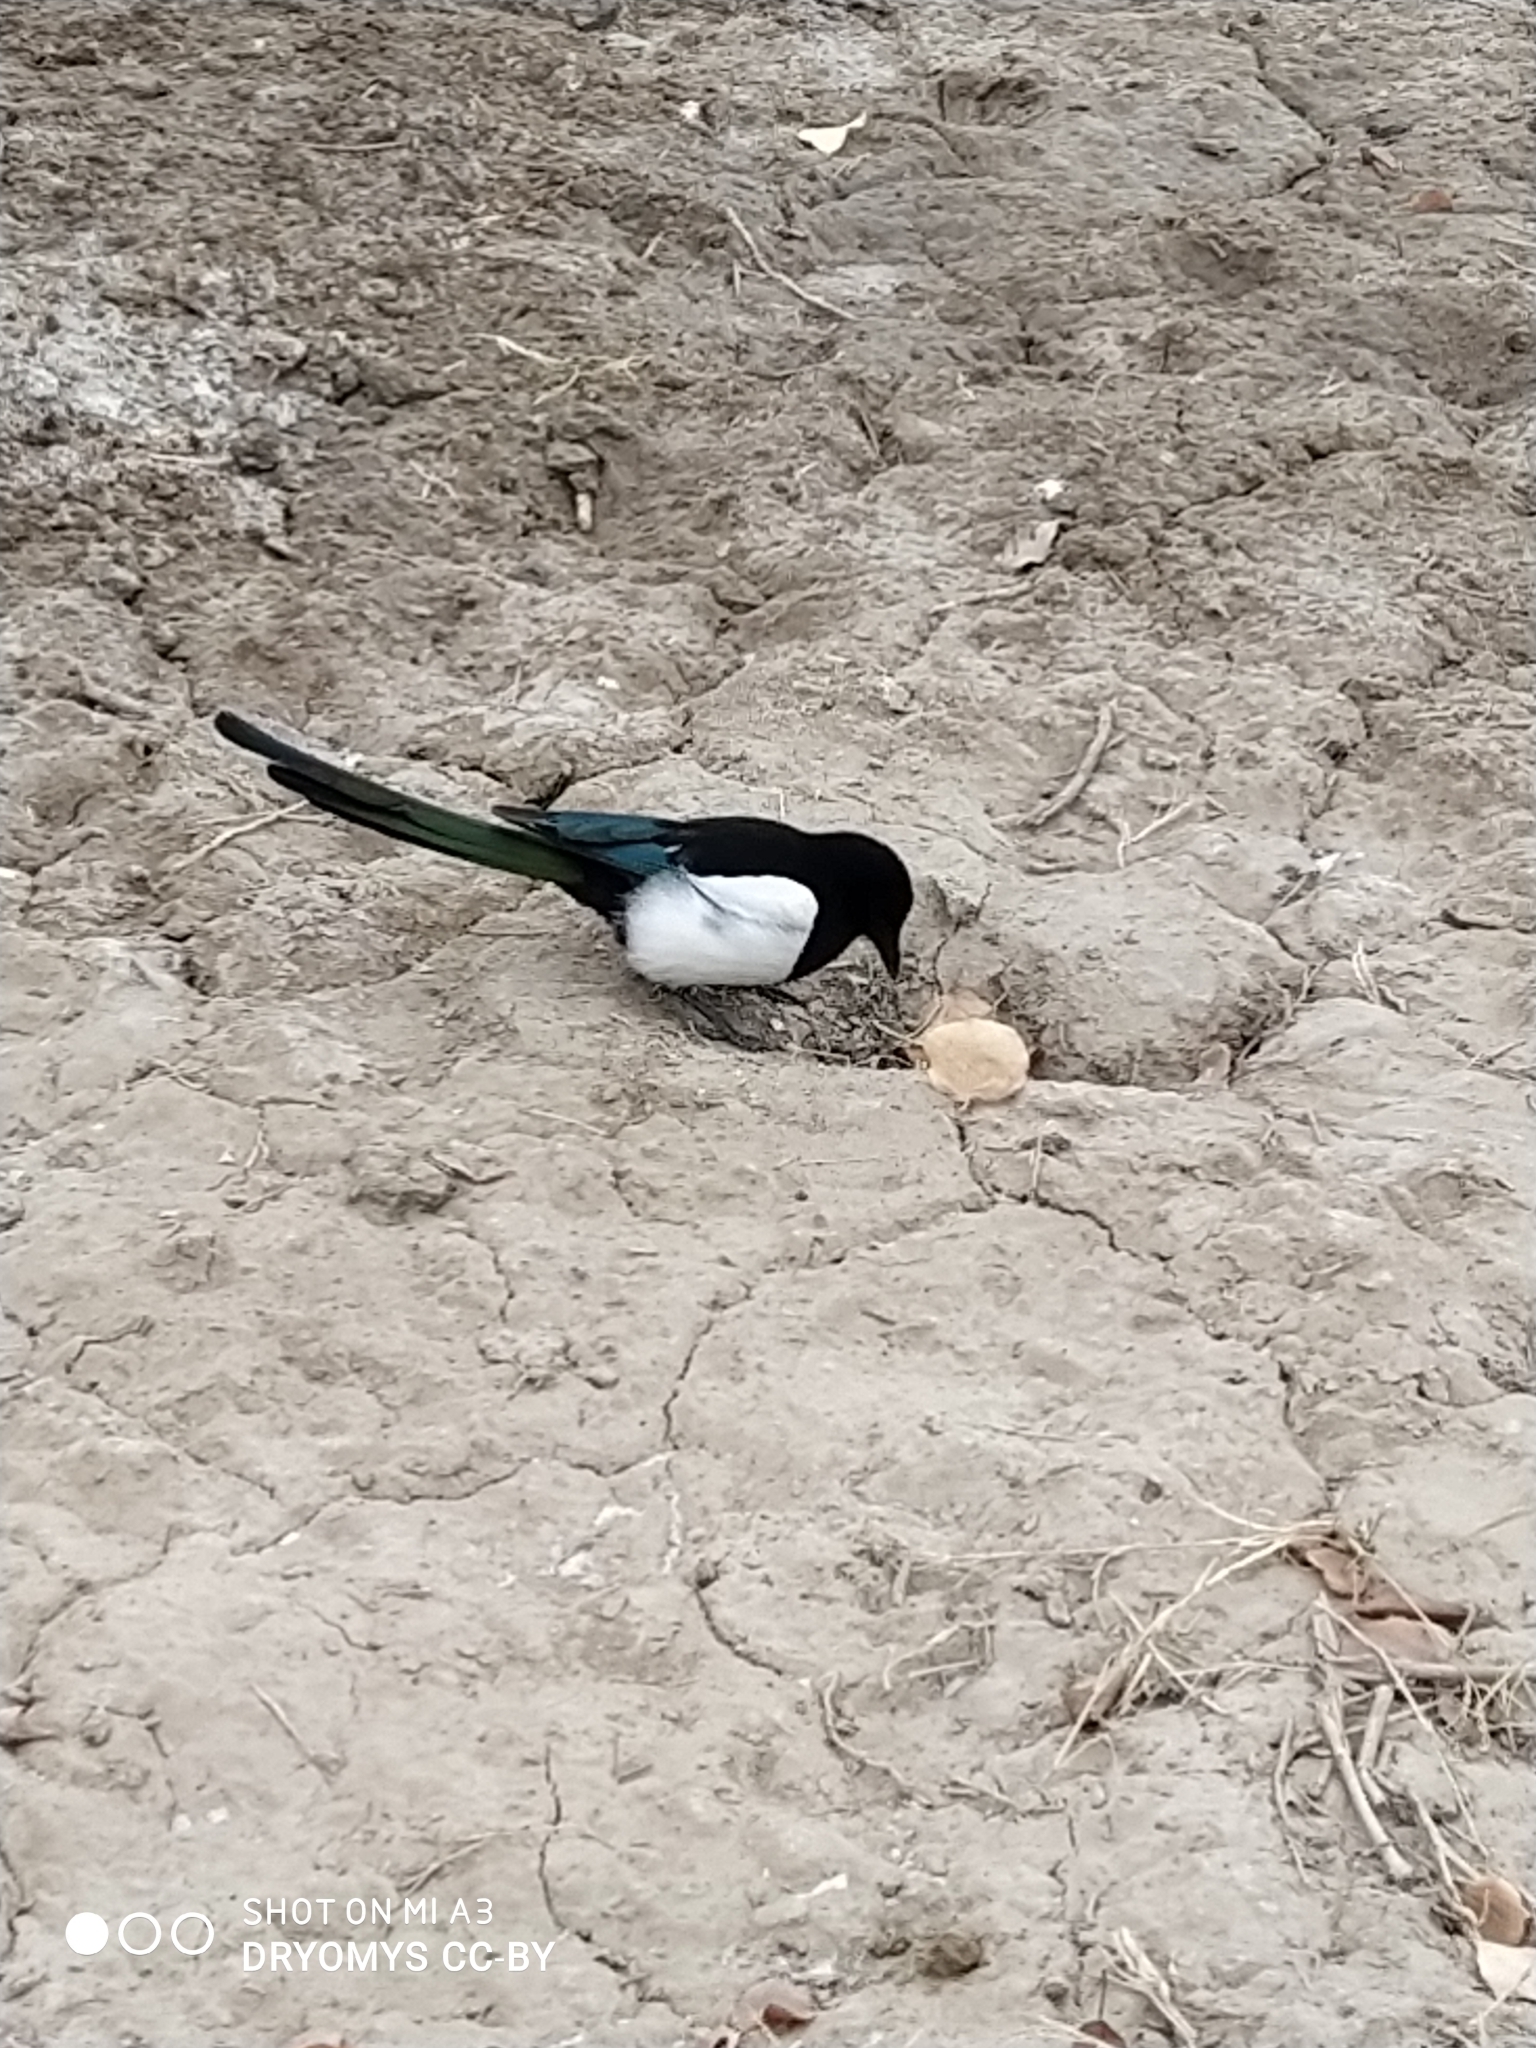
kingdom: Animalia
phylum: Chordata
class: Aves
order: Passeriformes
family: Corvidae
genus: Pica
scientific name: Pica pica
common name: Eurasian magpie
